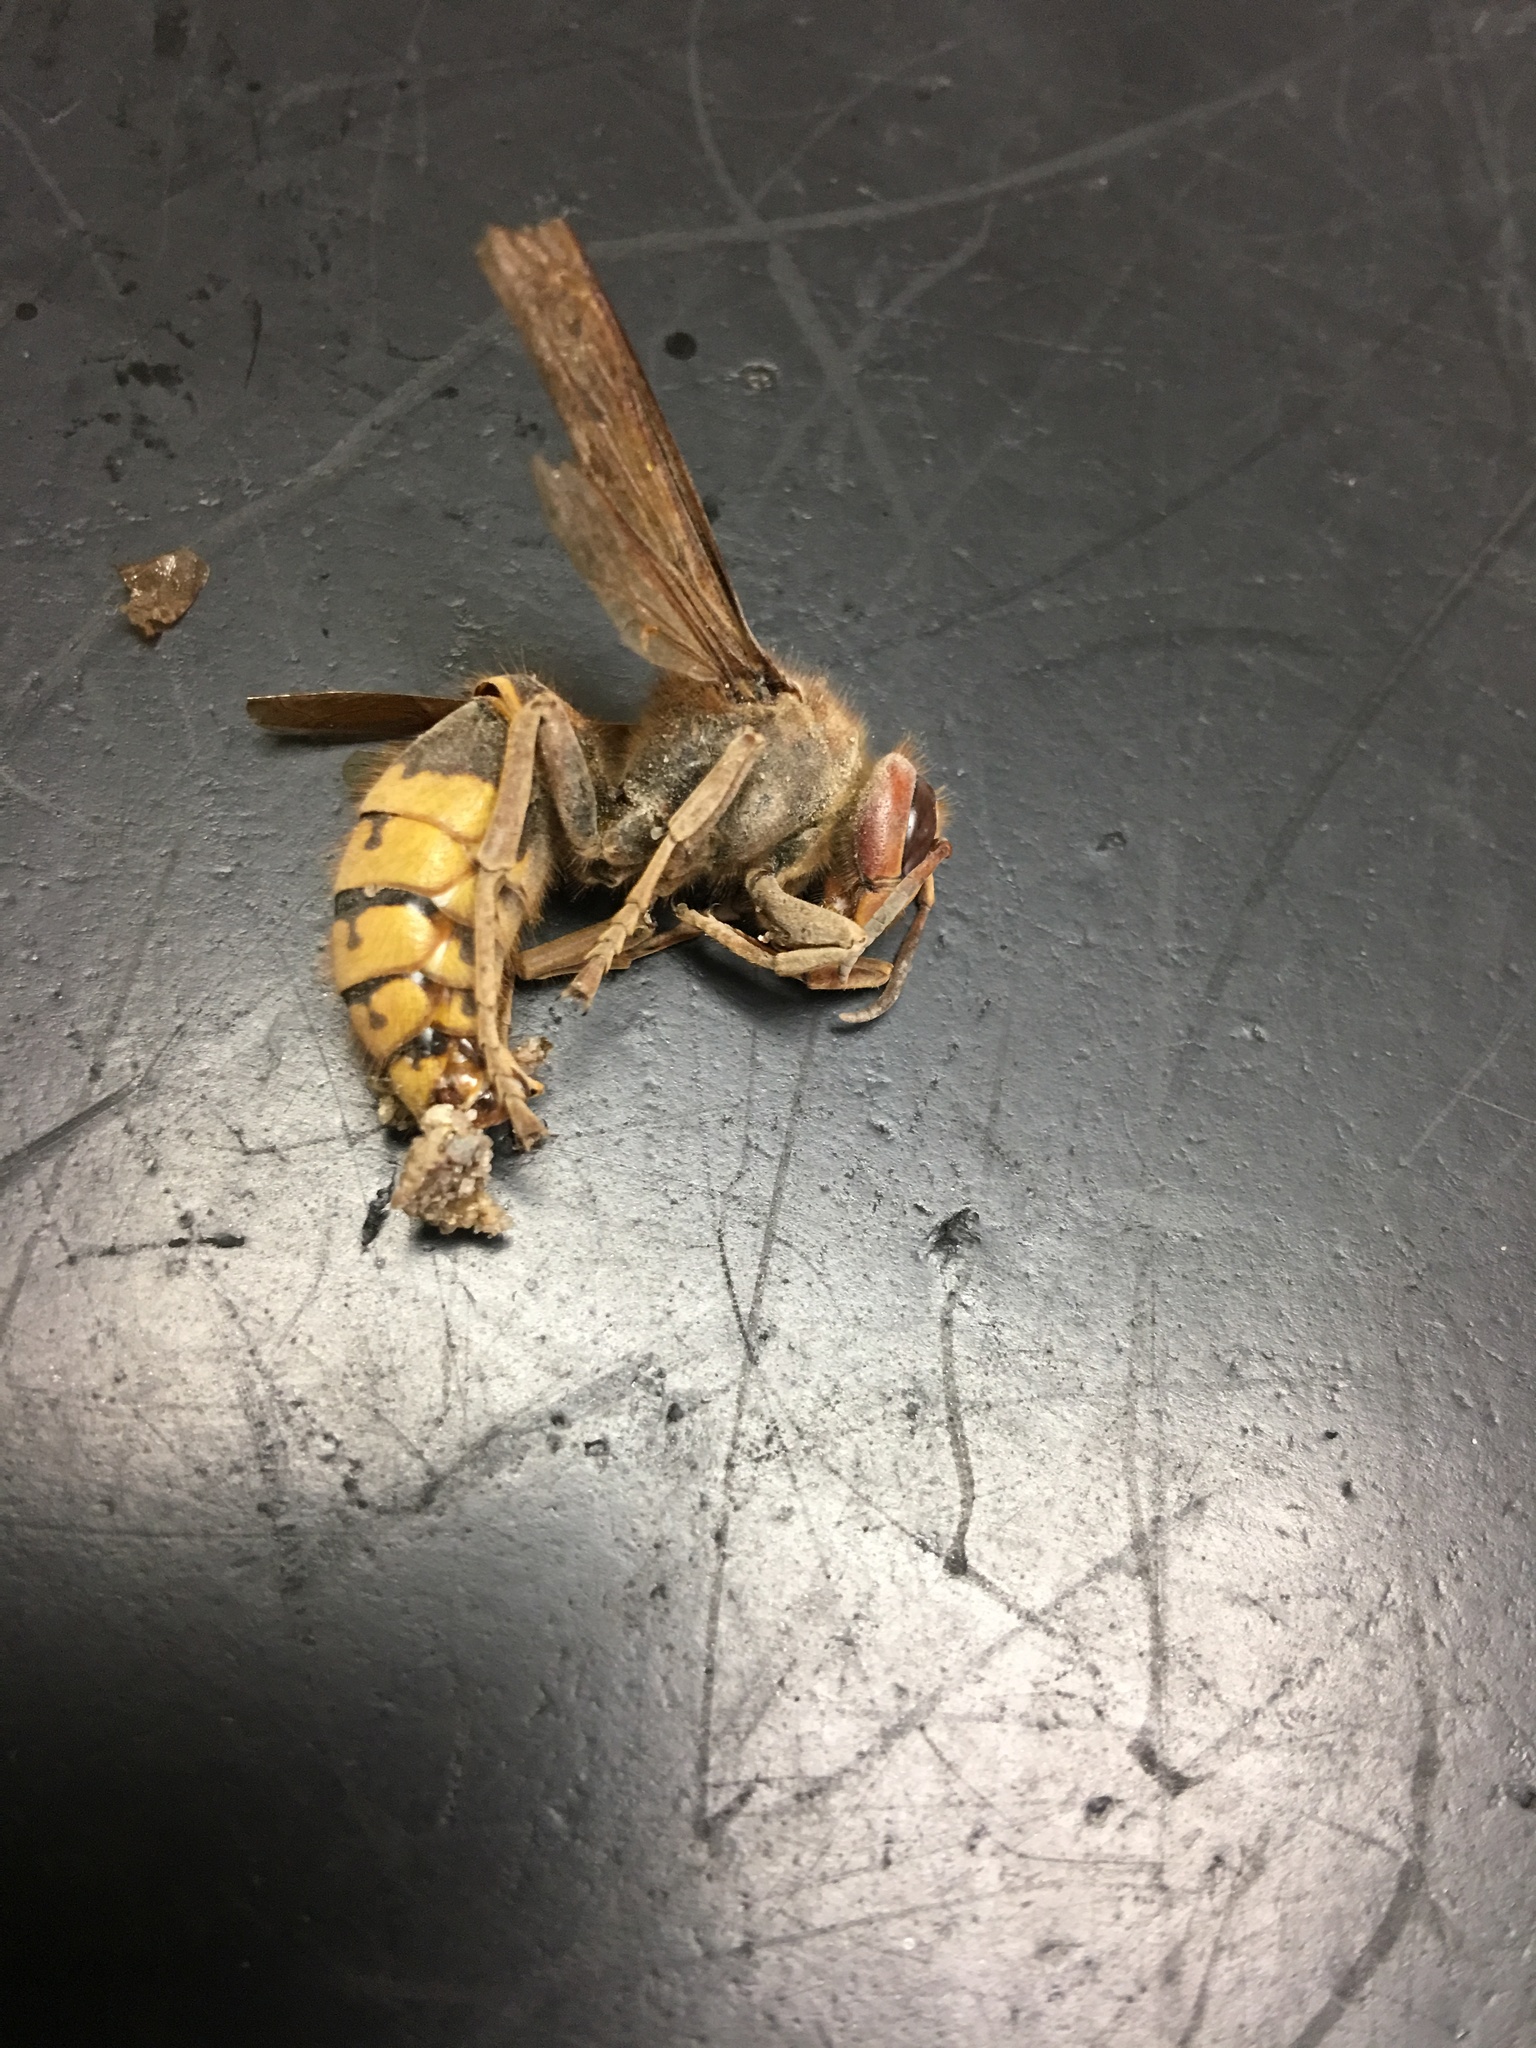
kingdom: Animalia
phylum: Arthropoda
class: Insecta
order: Hymenoptera
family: Vespidae
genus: Vespa
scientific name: Vespa crabro
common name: Hornet
